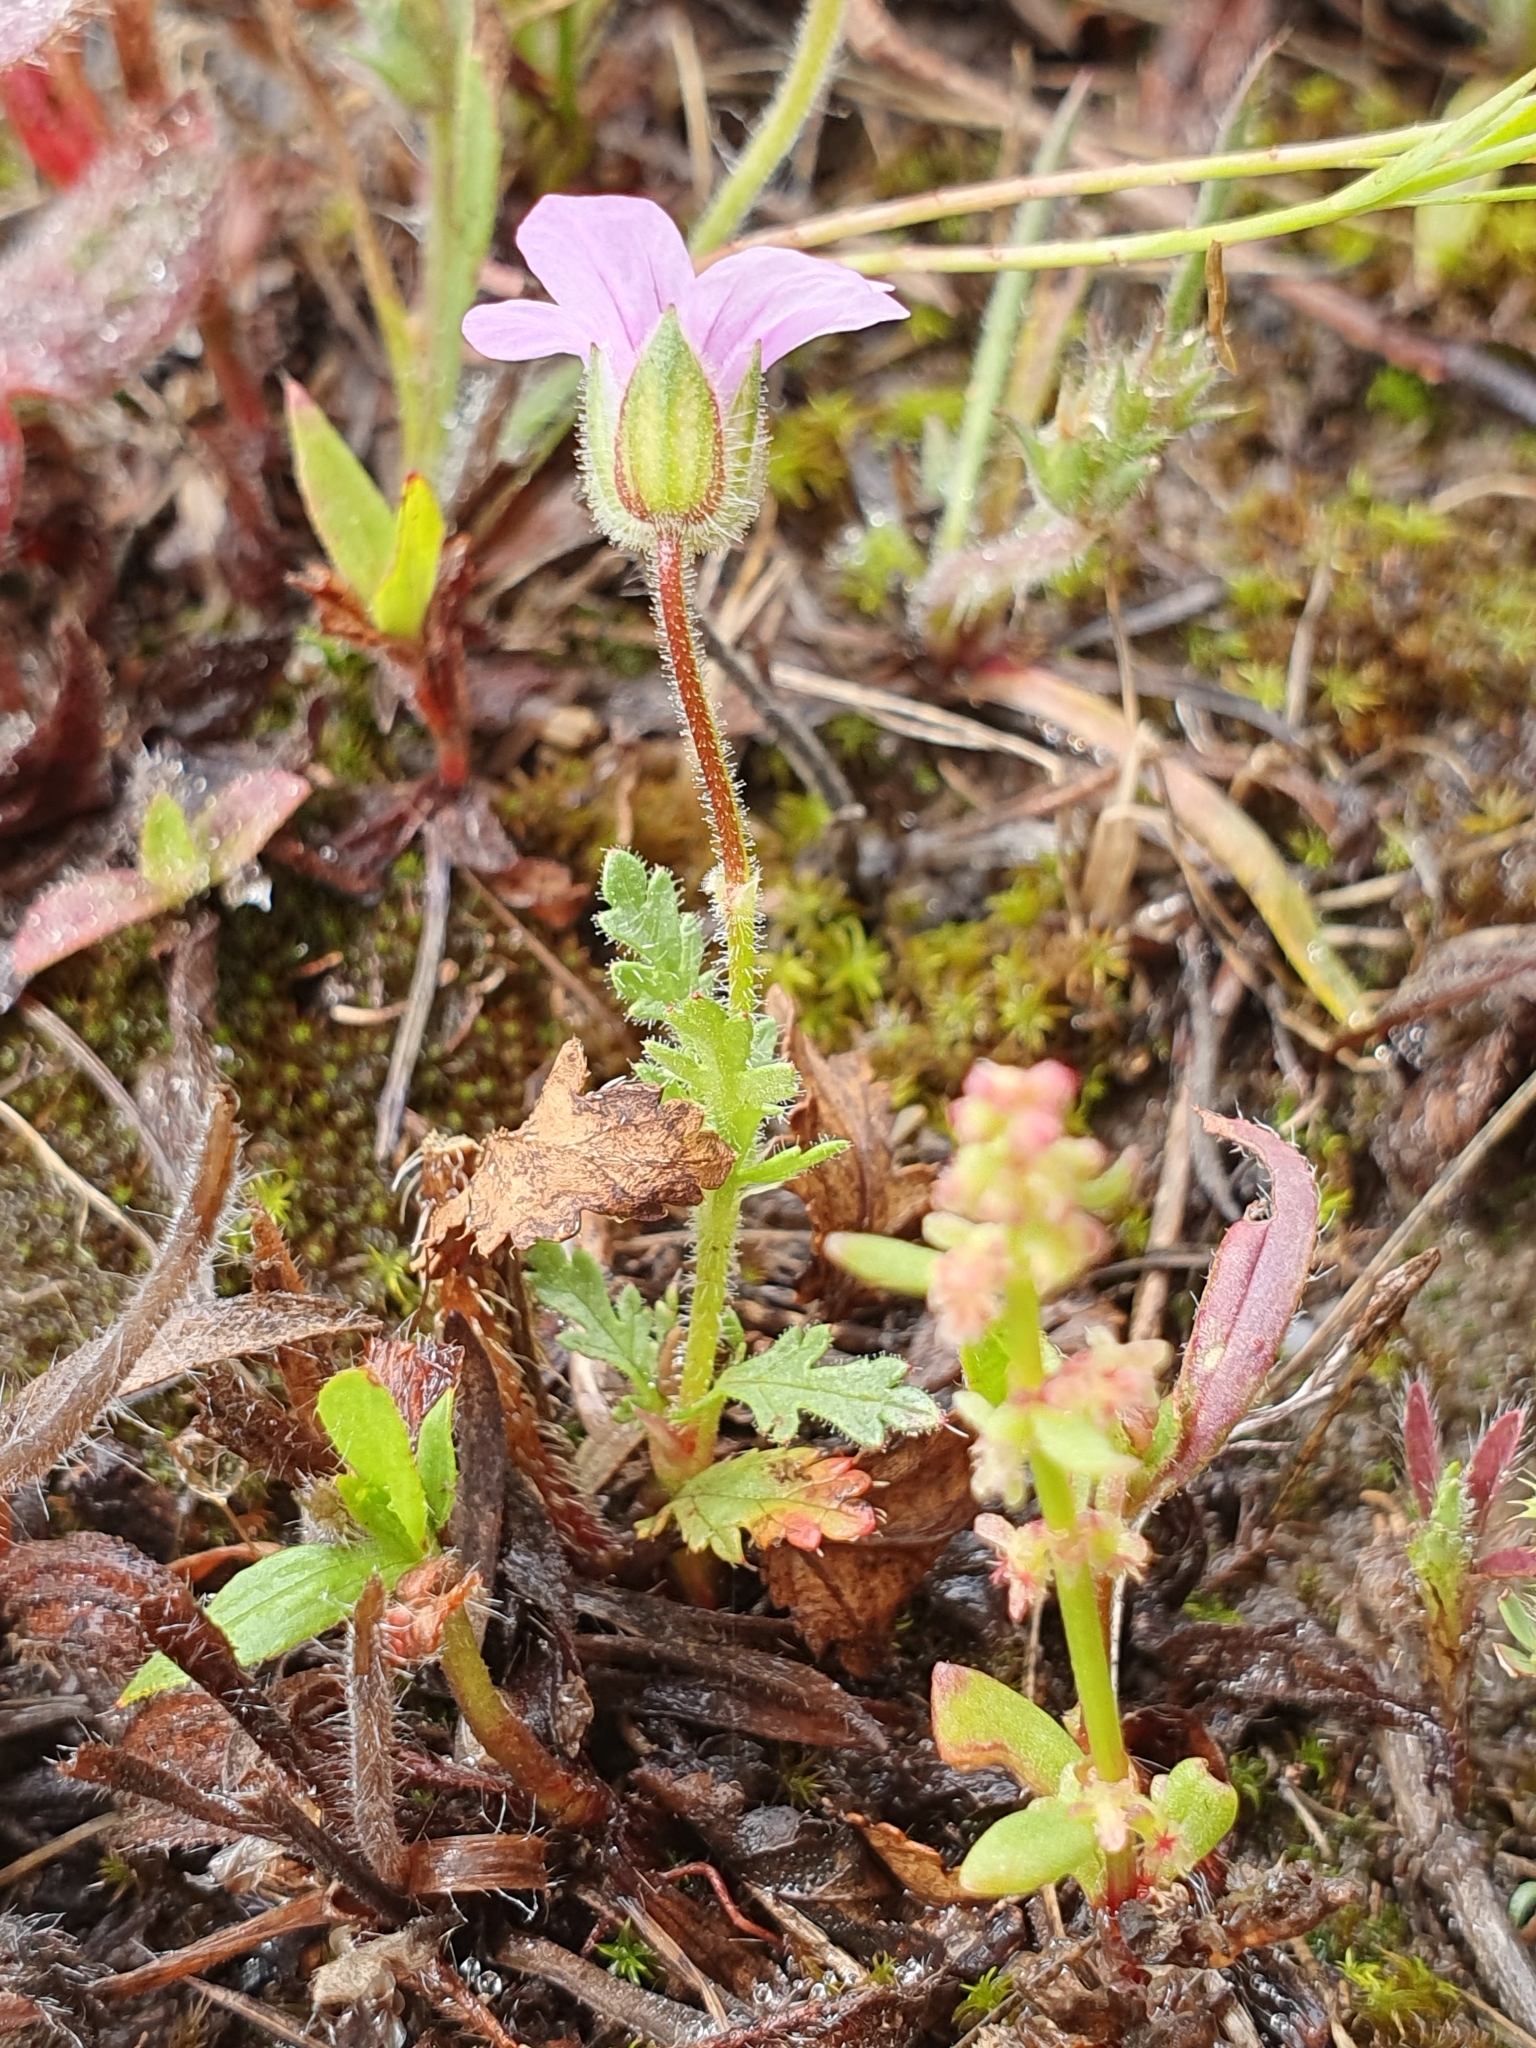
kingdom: Plantae
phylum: Tracheophyta
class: Magnoliopsida
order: Geraniales
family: Geraniaceae
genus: Erodium
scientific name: Erodium botrys
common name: Mediterranean stork's-bill
